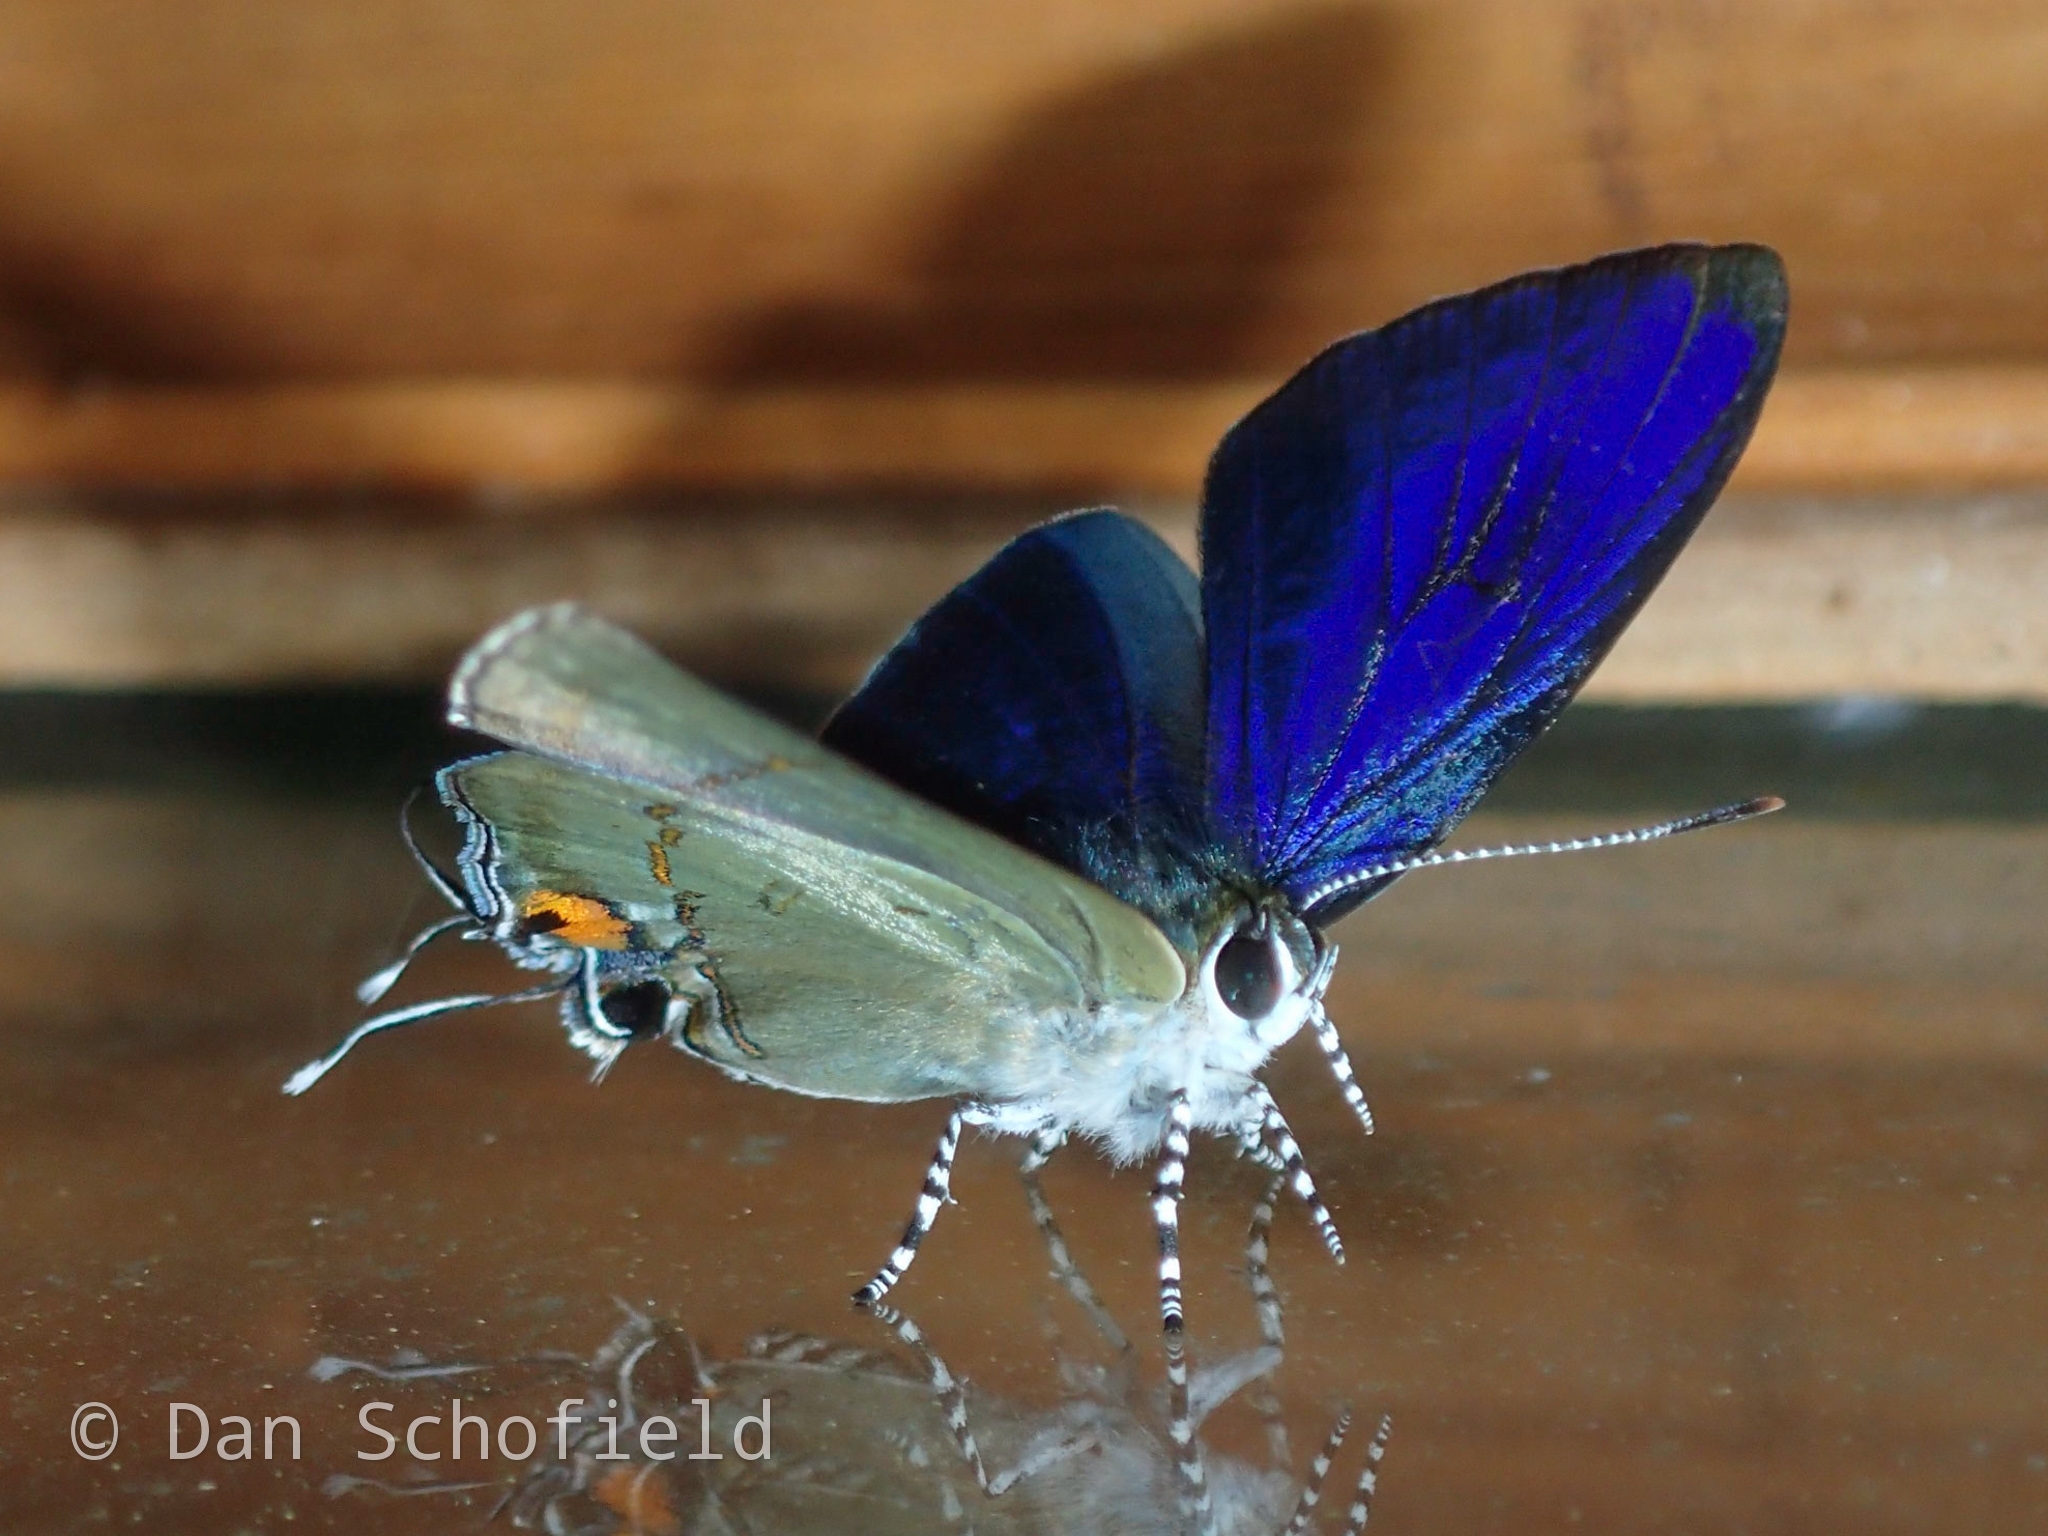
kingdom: Animalia
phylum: Arthropoda
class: Insecta
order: Lepidoptera
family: Lycaenidae
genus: Hypolycaena
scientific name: Hypolycaena erylus
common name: Common tit
